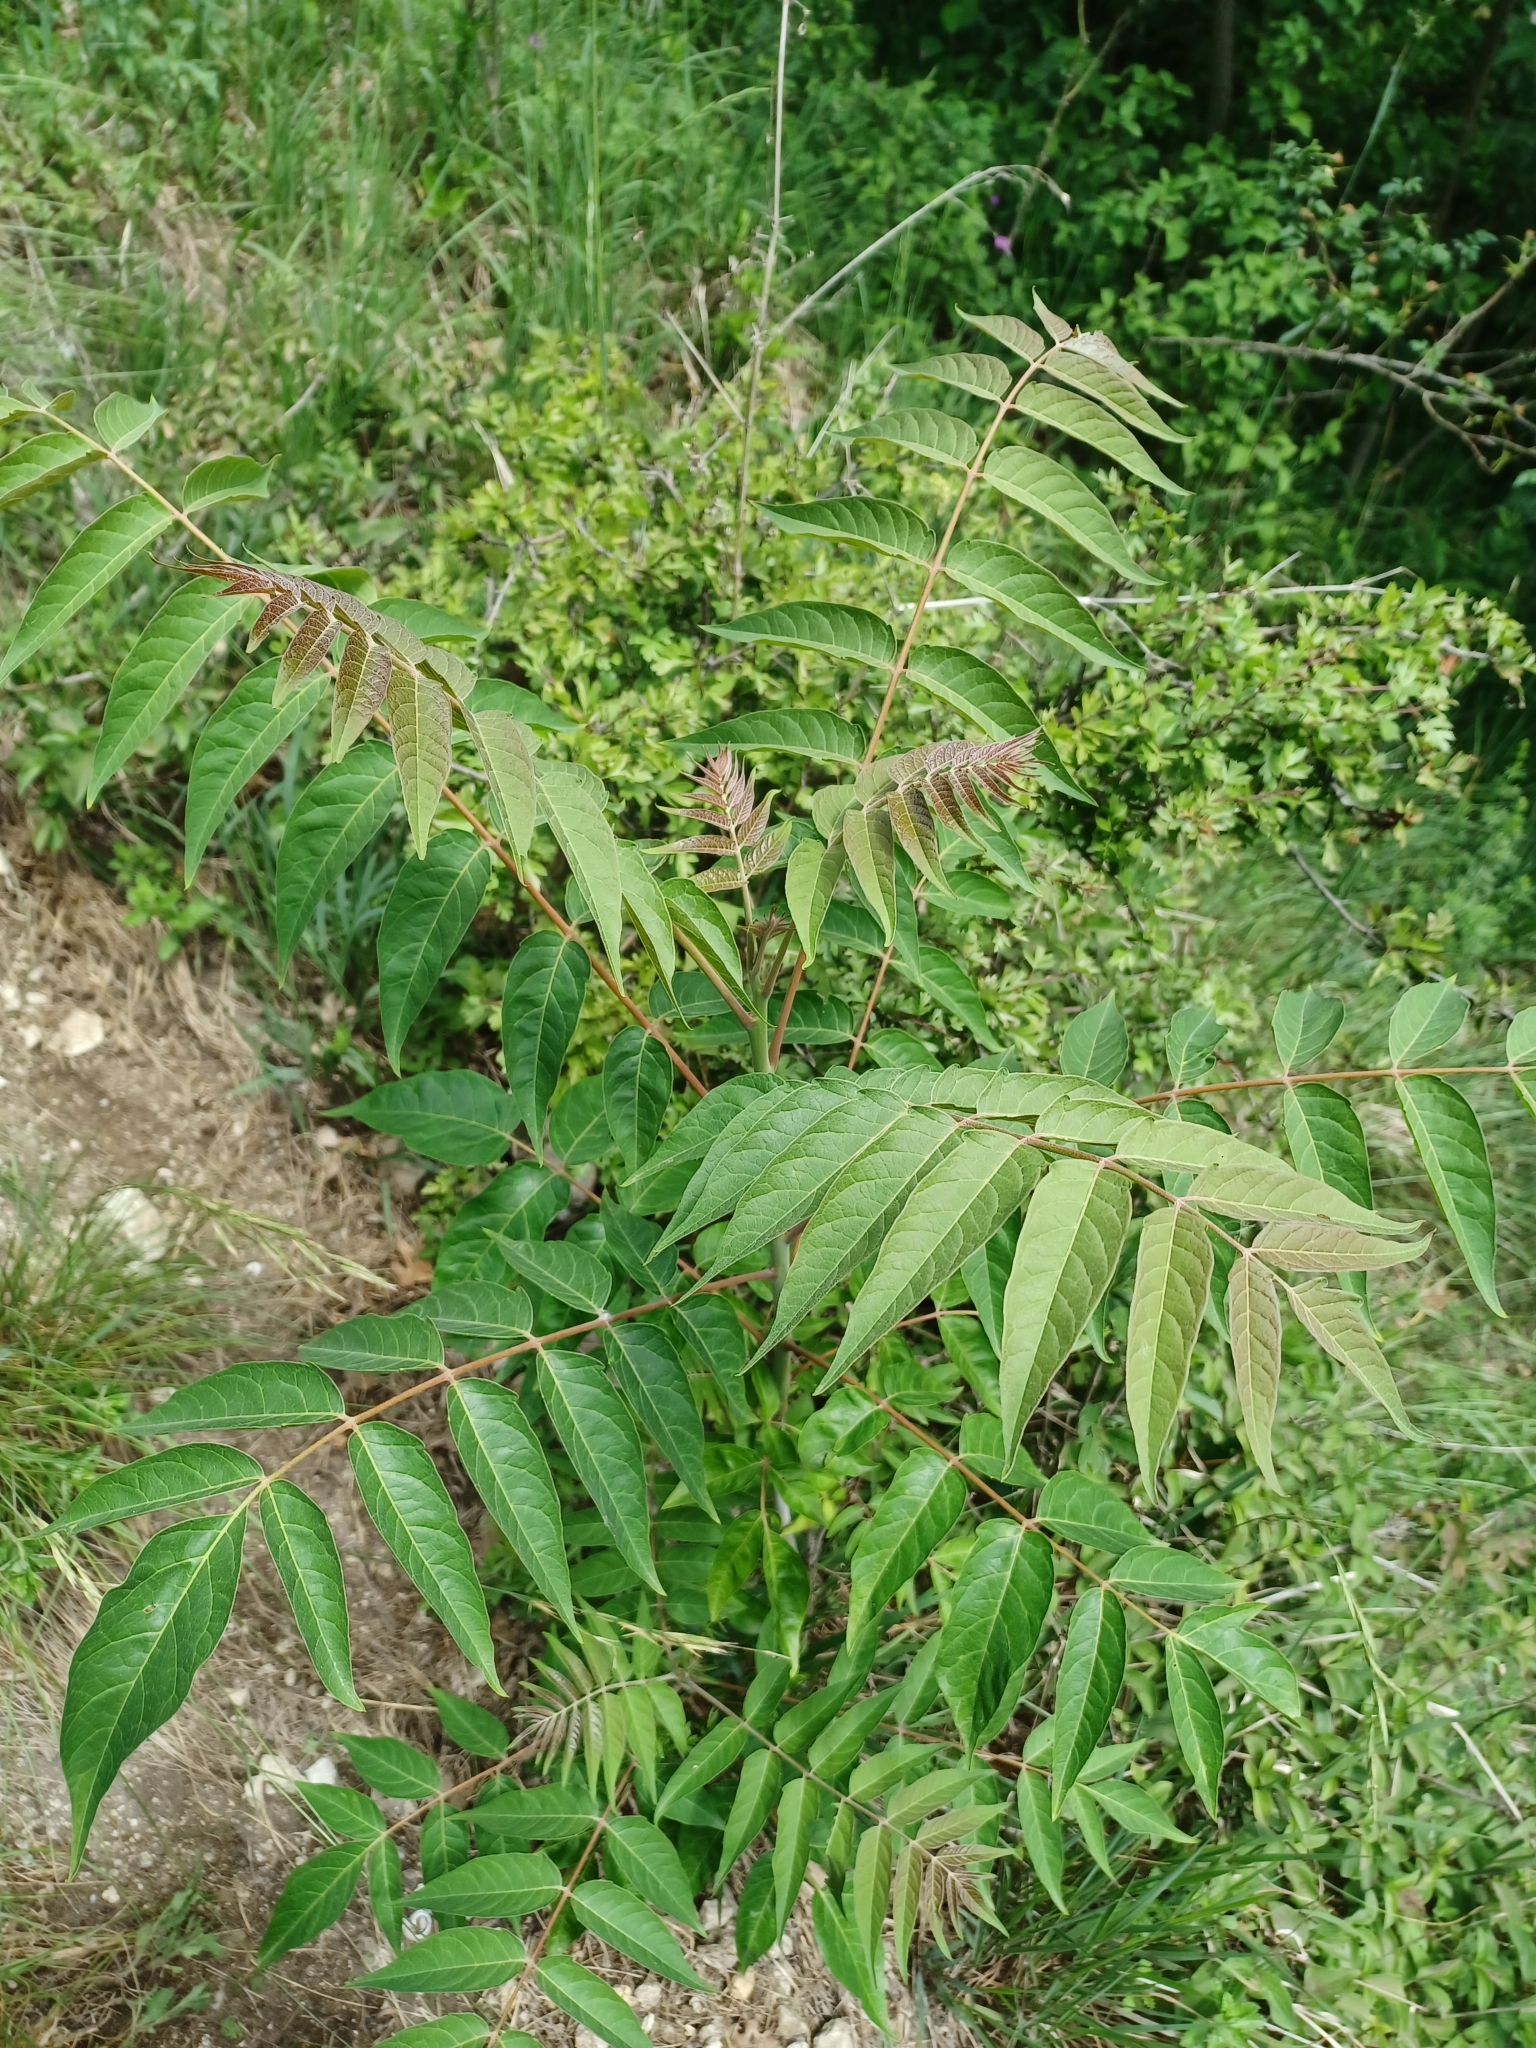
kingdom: Plantae
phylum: Tracheophyta
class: Magnoliopsida
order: Sapindales
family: Simaroubaceae
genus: Ailanthus
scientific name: Ailanthus altissima
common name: Tree-of-heaven
